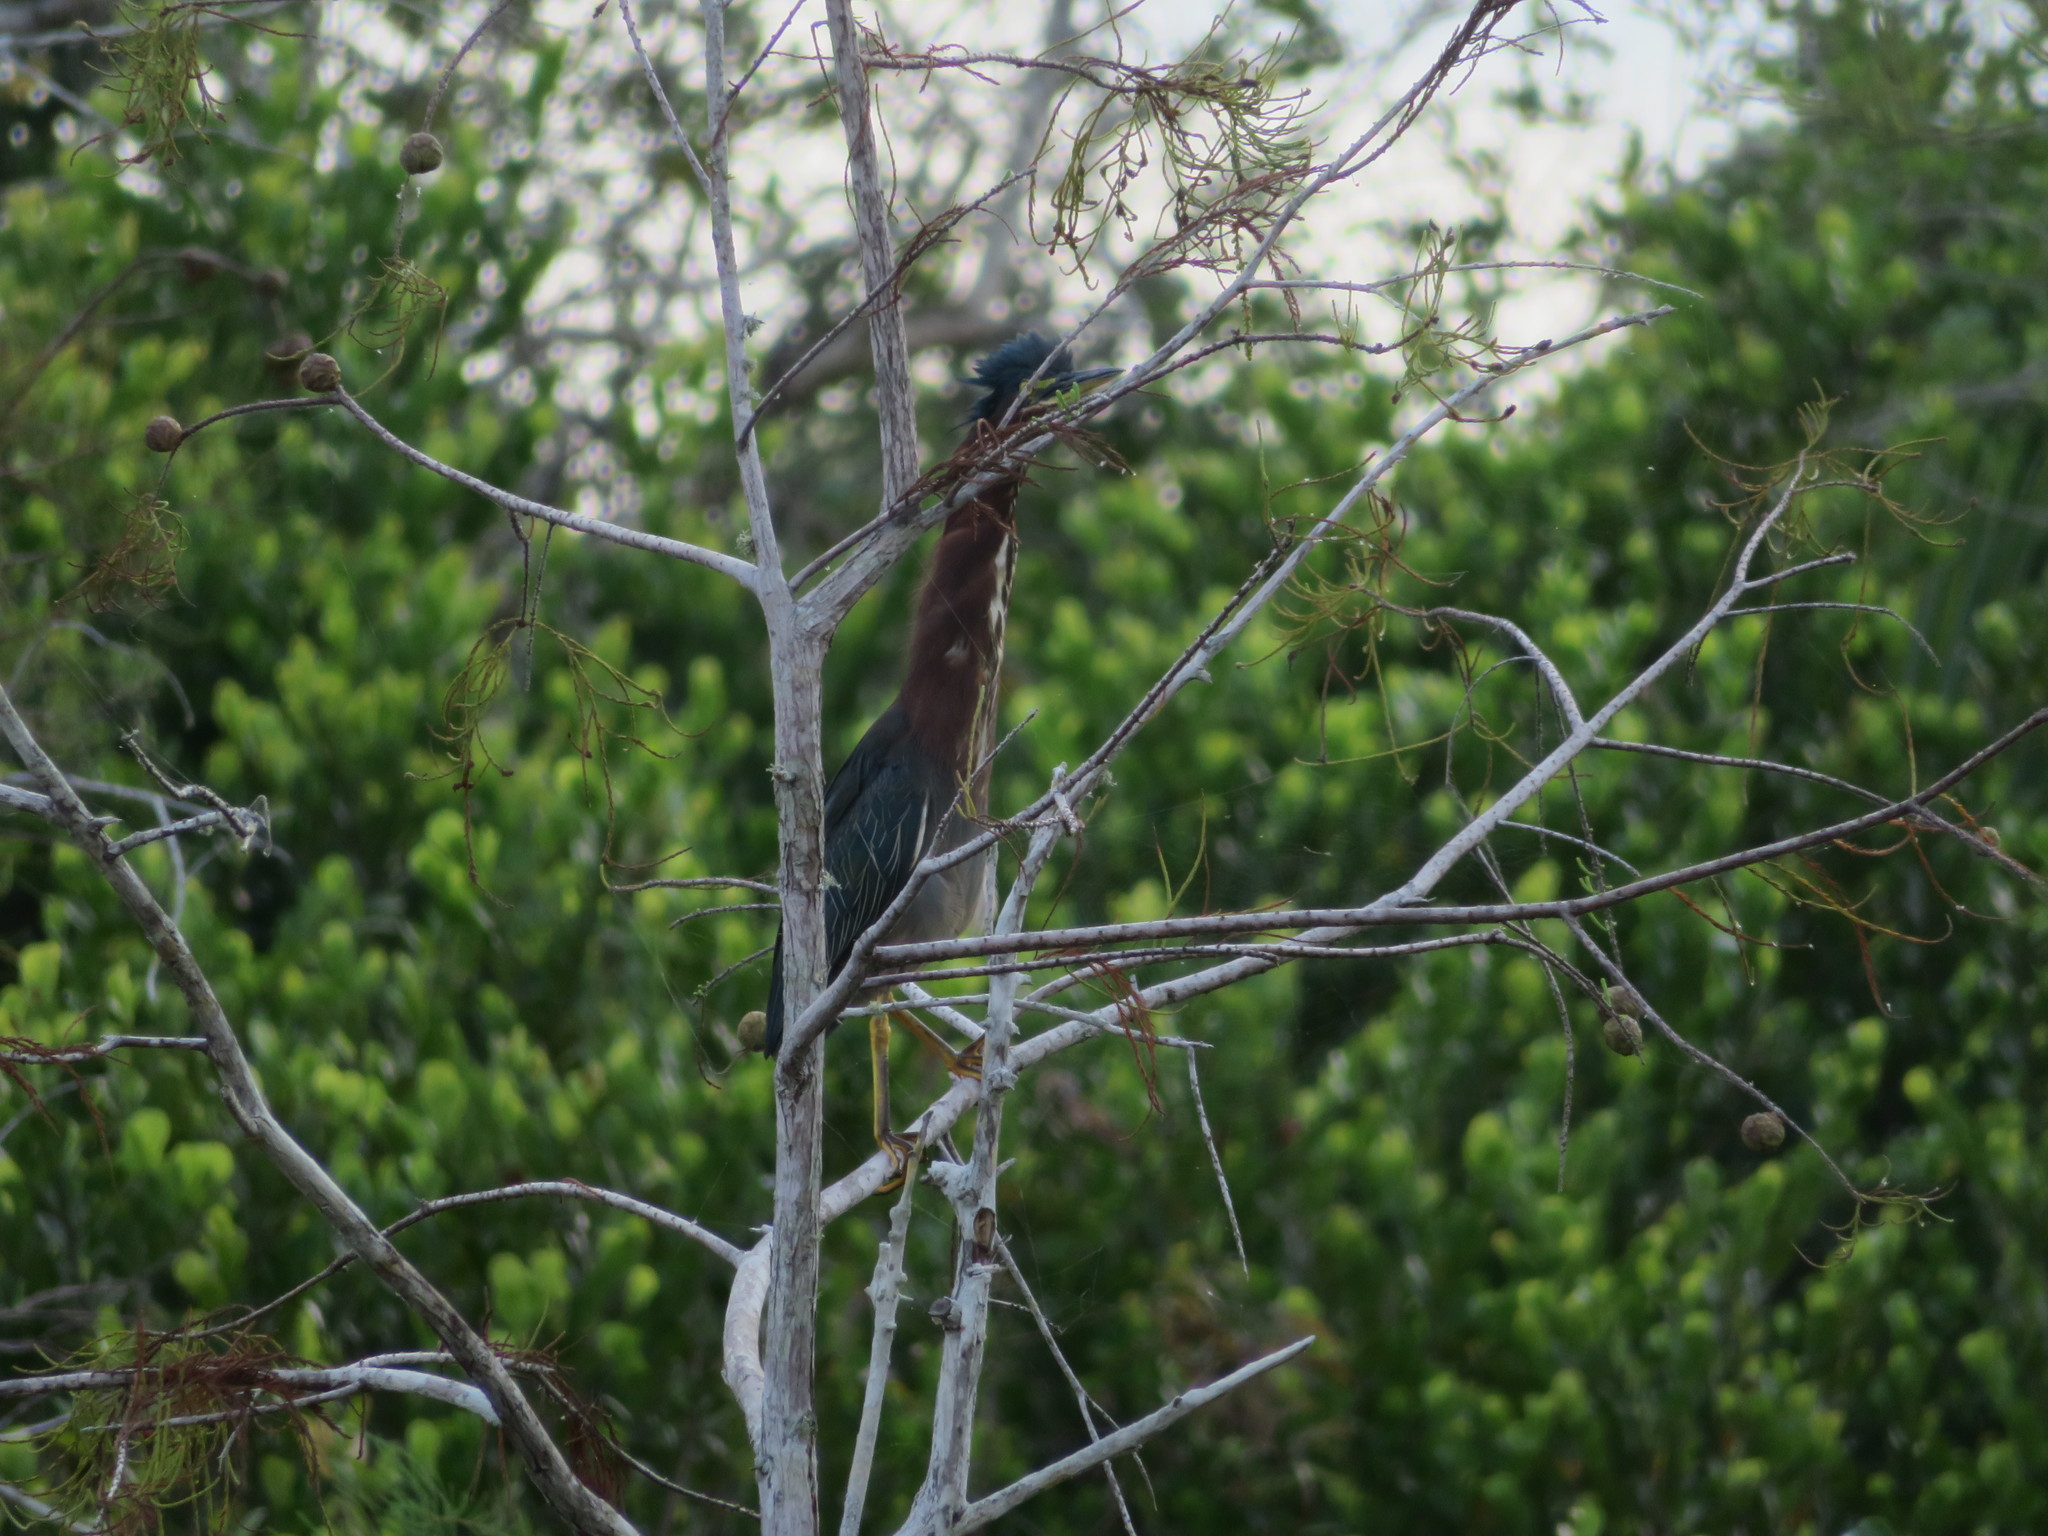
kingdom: Animalia
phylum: Chordata
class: Aves
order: Pelecaniformes
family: Ardeidae
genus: Butorides
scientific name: Butorides virescens
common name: Green heron
